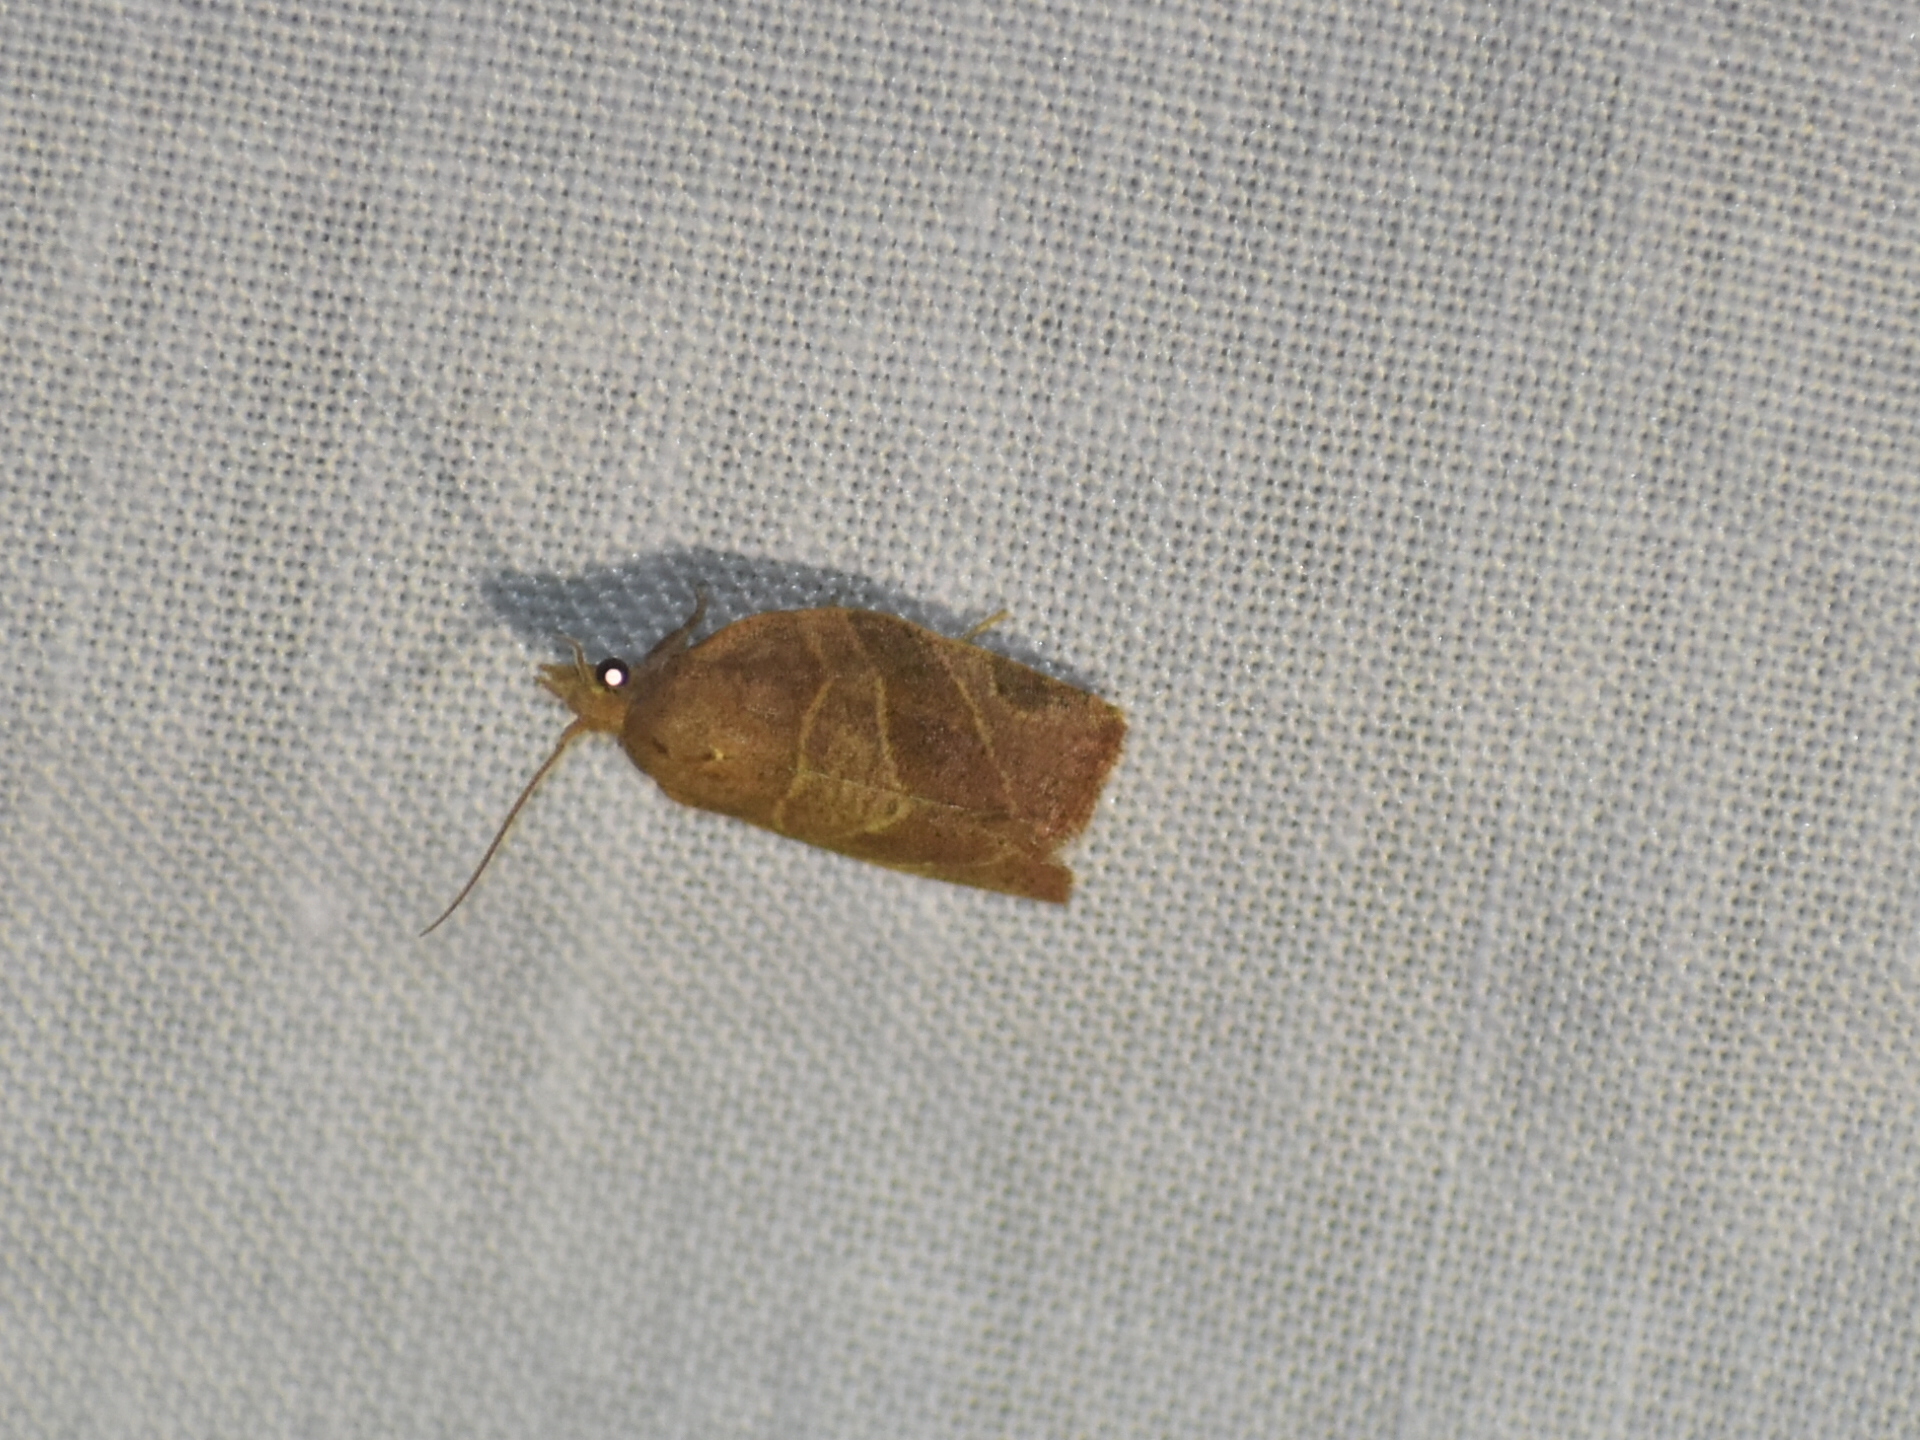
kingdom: Animalia
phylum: Arthropoda
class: Insecta
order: Lepidoptera
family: Tortricidae
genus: Pandemis
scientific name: Pandemis limitata
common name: Three-lined leafroller moth
